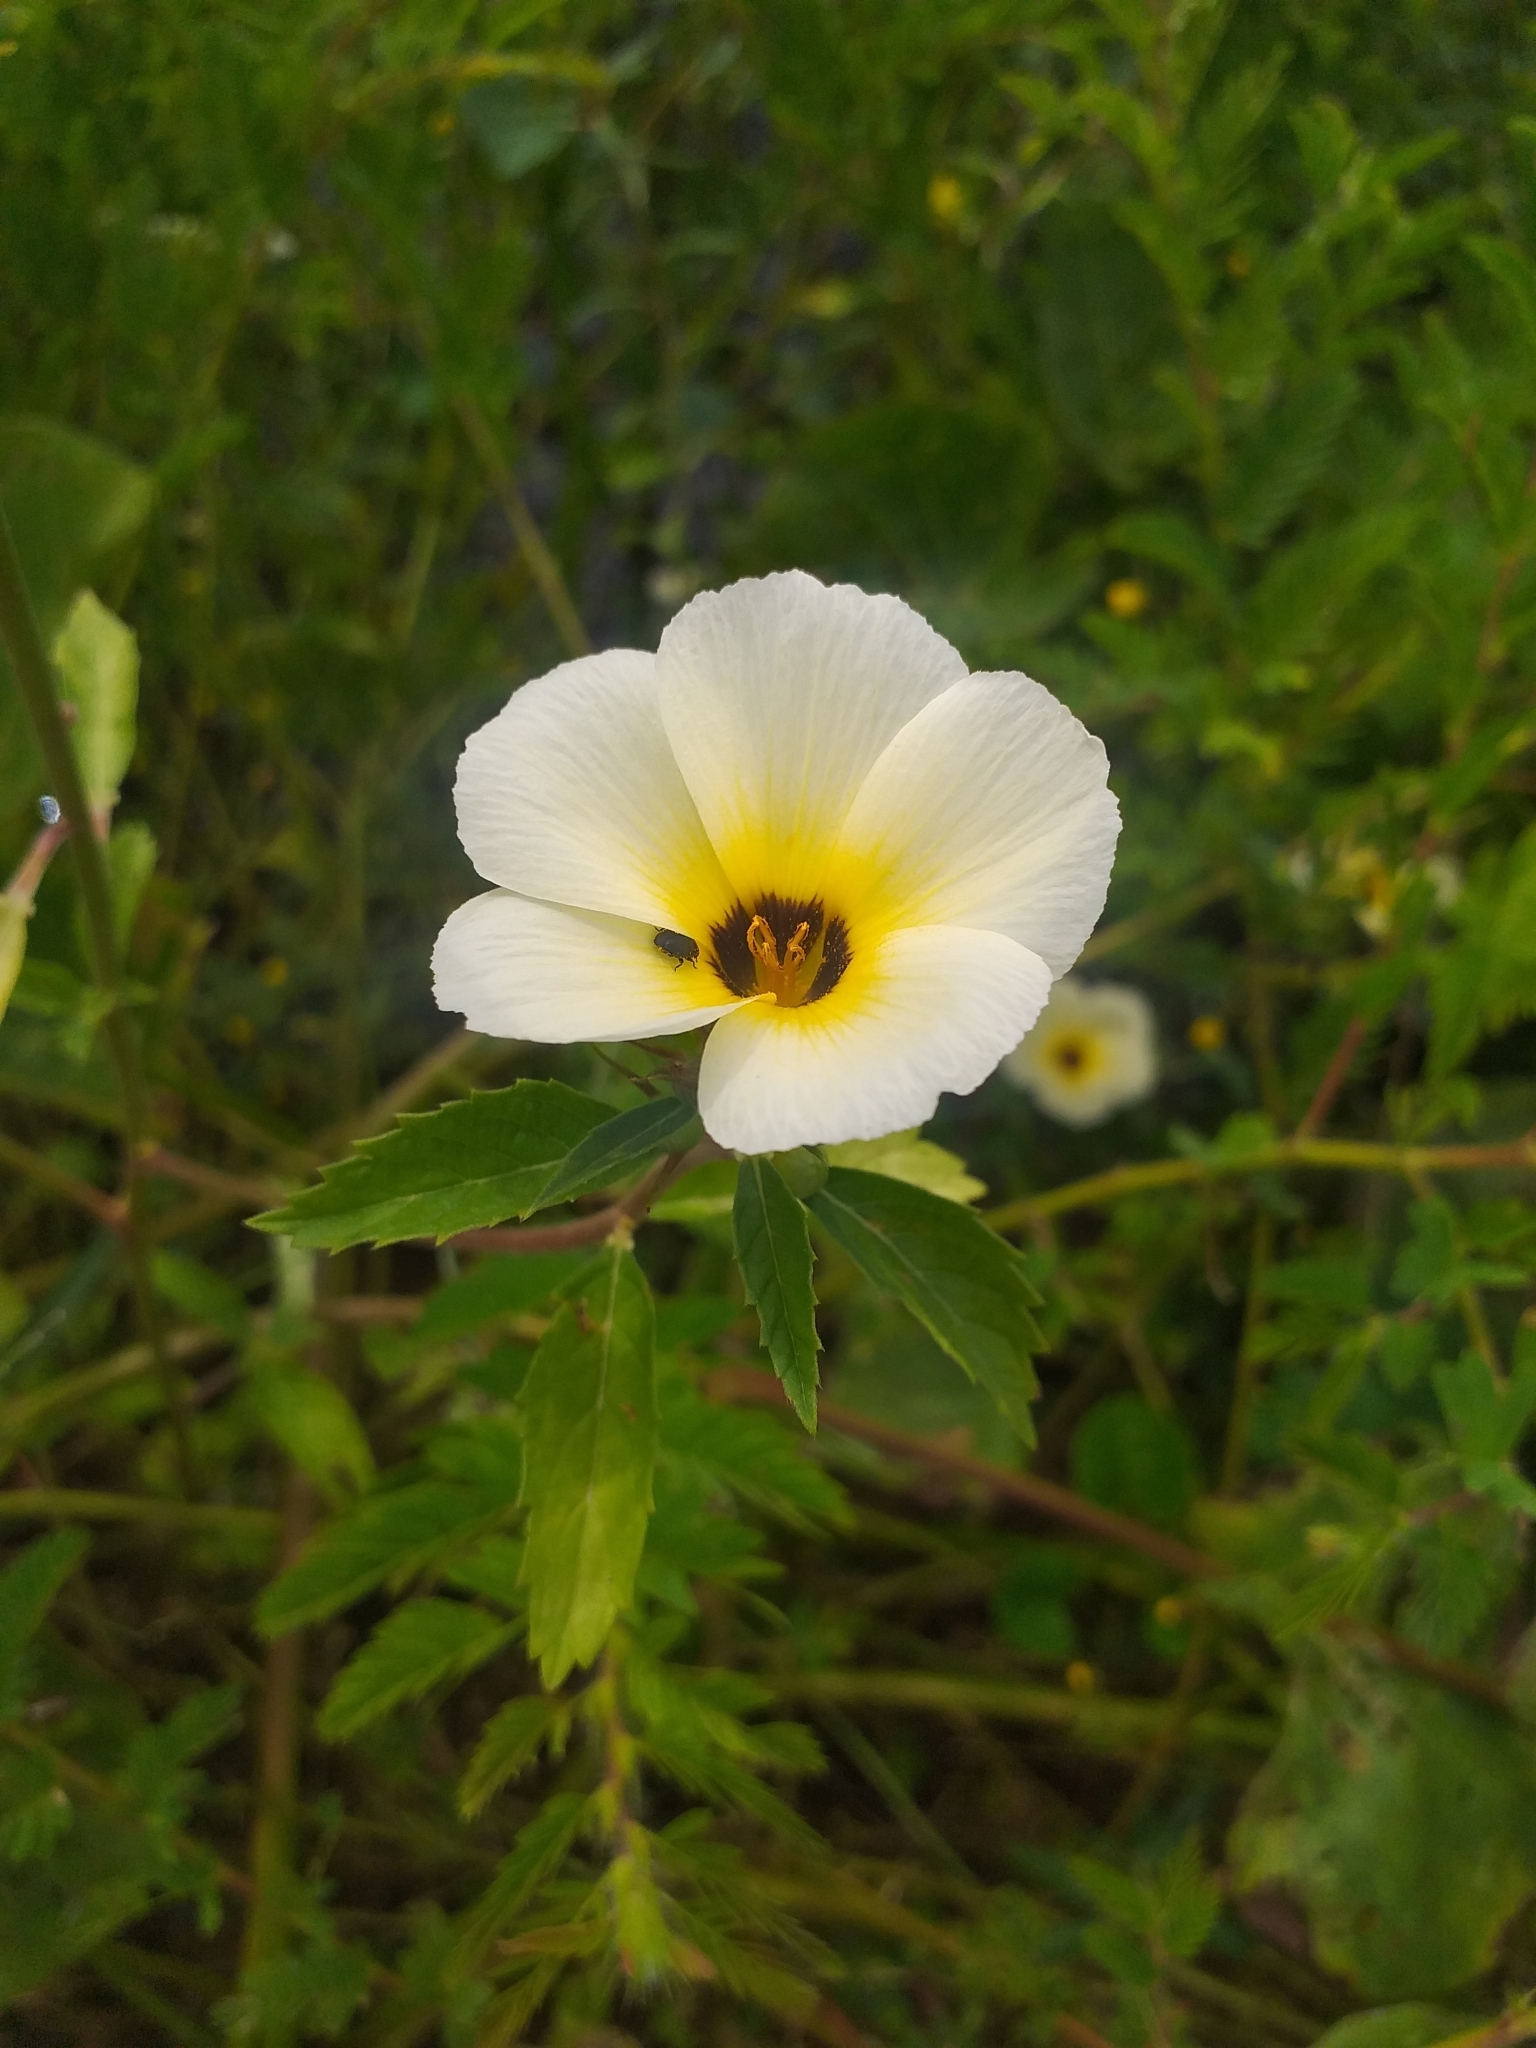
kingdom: Plantae
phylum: Tracheophyta
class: Magnoliopsida
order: Malpighiales
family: Turneraceae
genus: Turnera
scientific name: Turnera subulata
